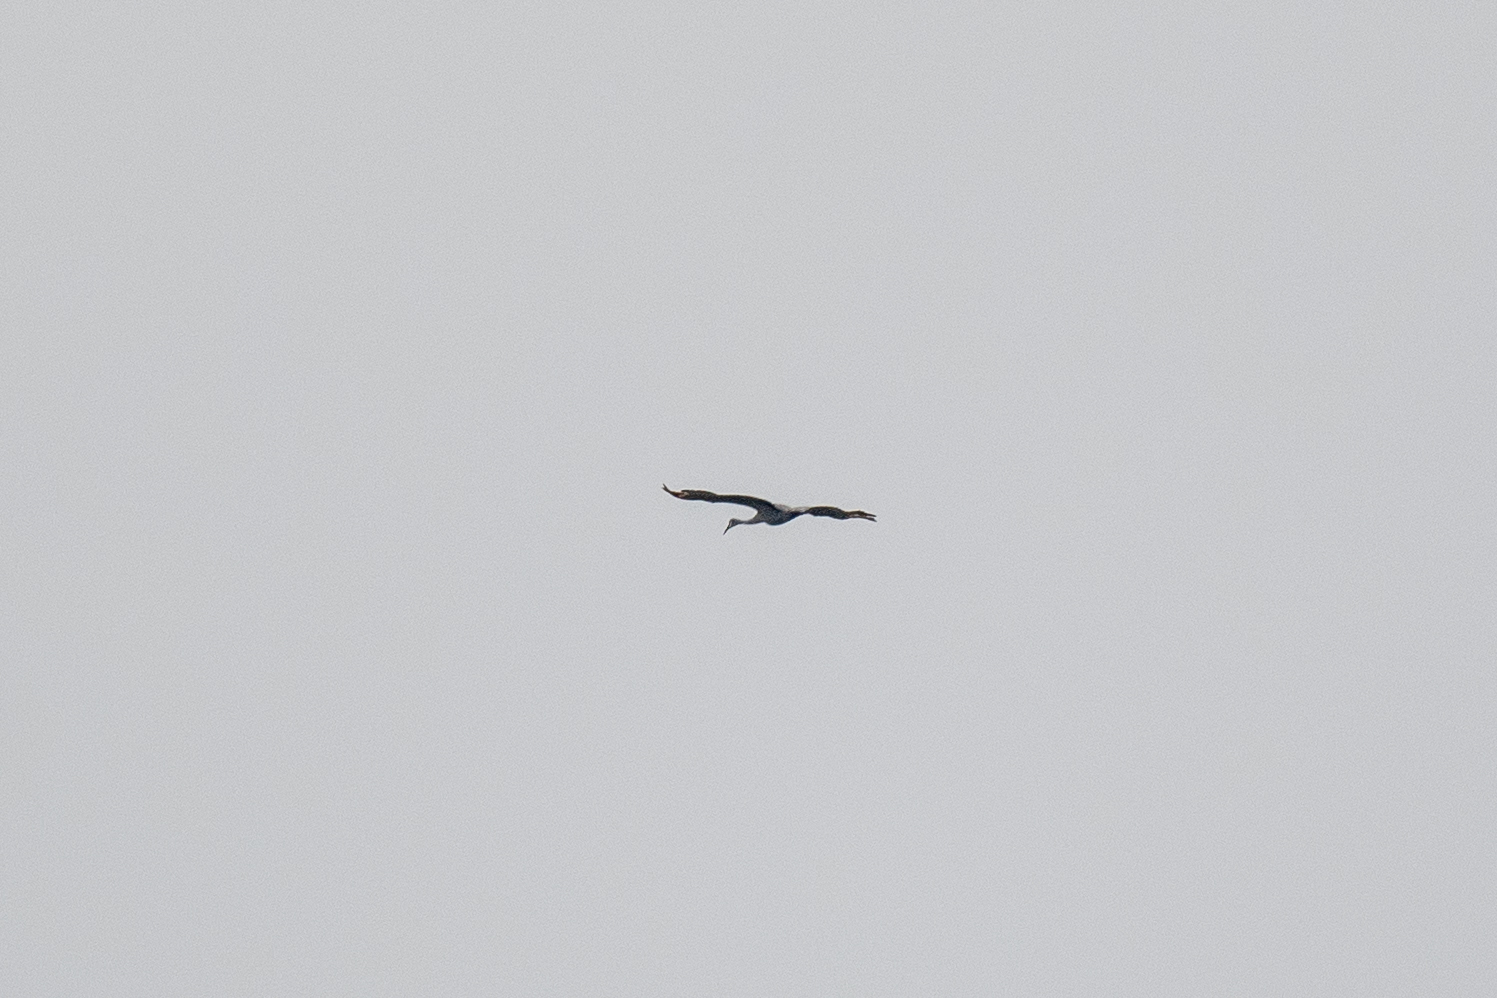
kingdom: Animalia
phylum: Chordata
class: Aves
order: Gruiformes
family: Gruidae
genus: Grus
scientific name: Grus canadensis
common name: Sandhill crane
